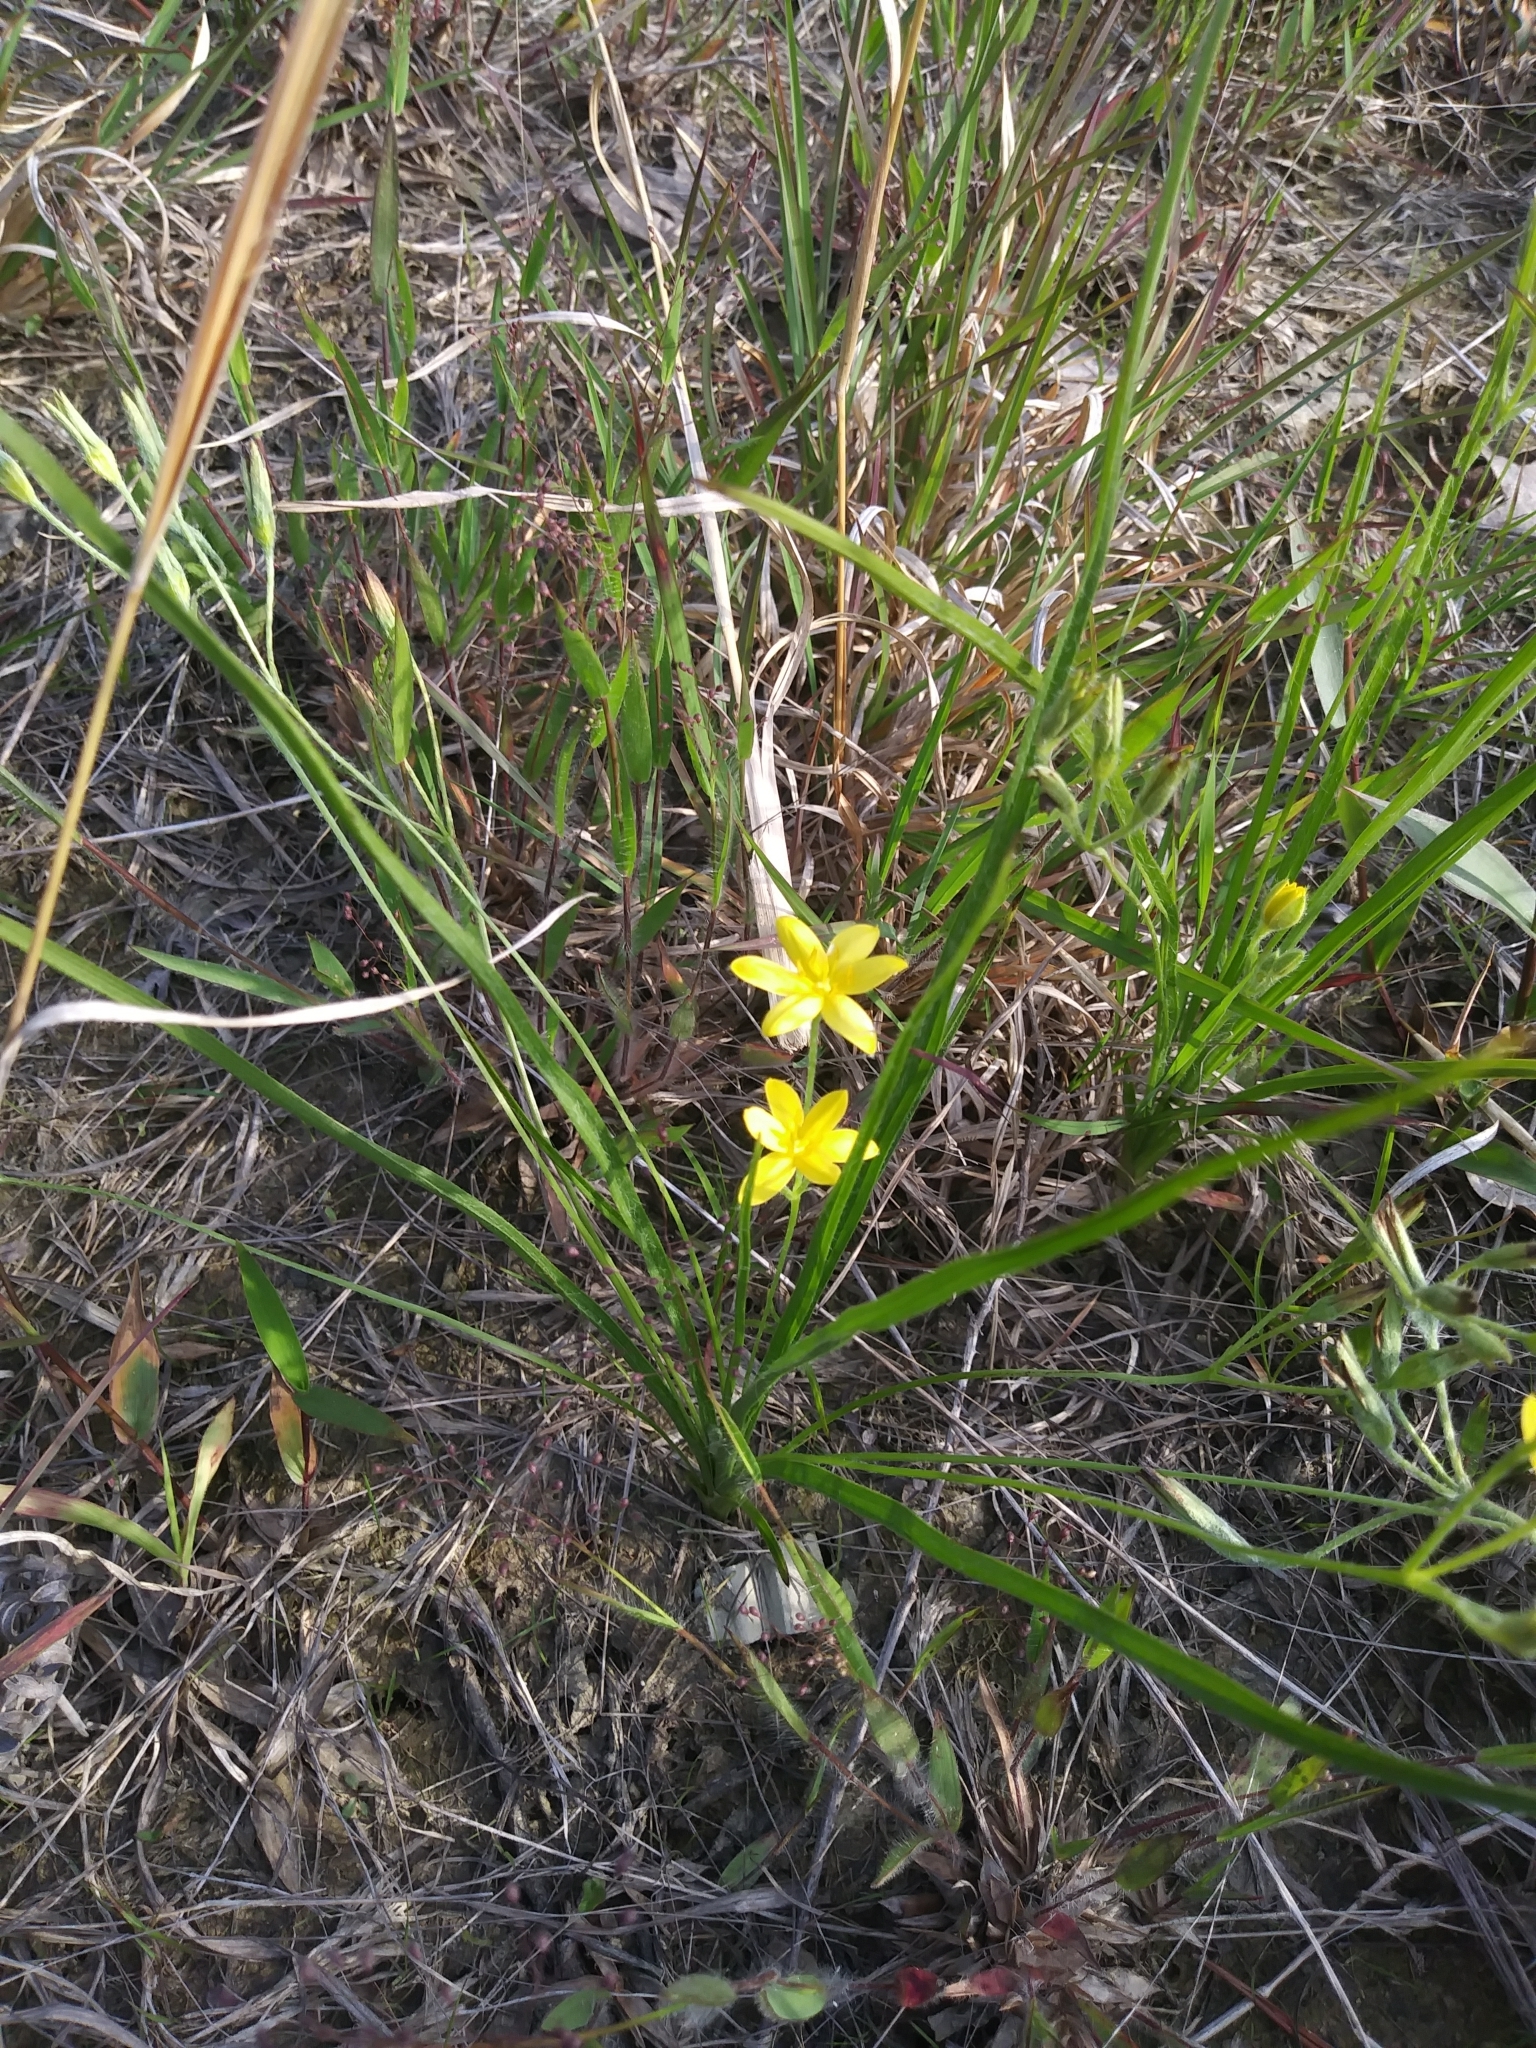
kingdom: Plantae
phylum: Tracheophyta
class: Liliopsida
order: Asparagales
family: Hypoxidaceae
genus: Hypoxis
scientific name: Hypoxis hirsuta
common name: Common goldstar
